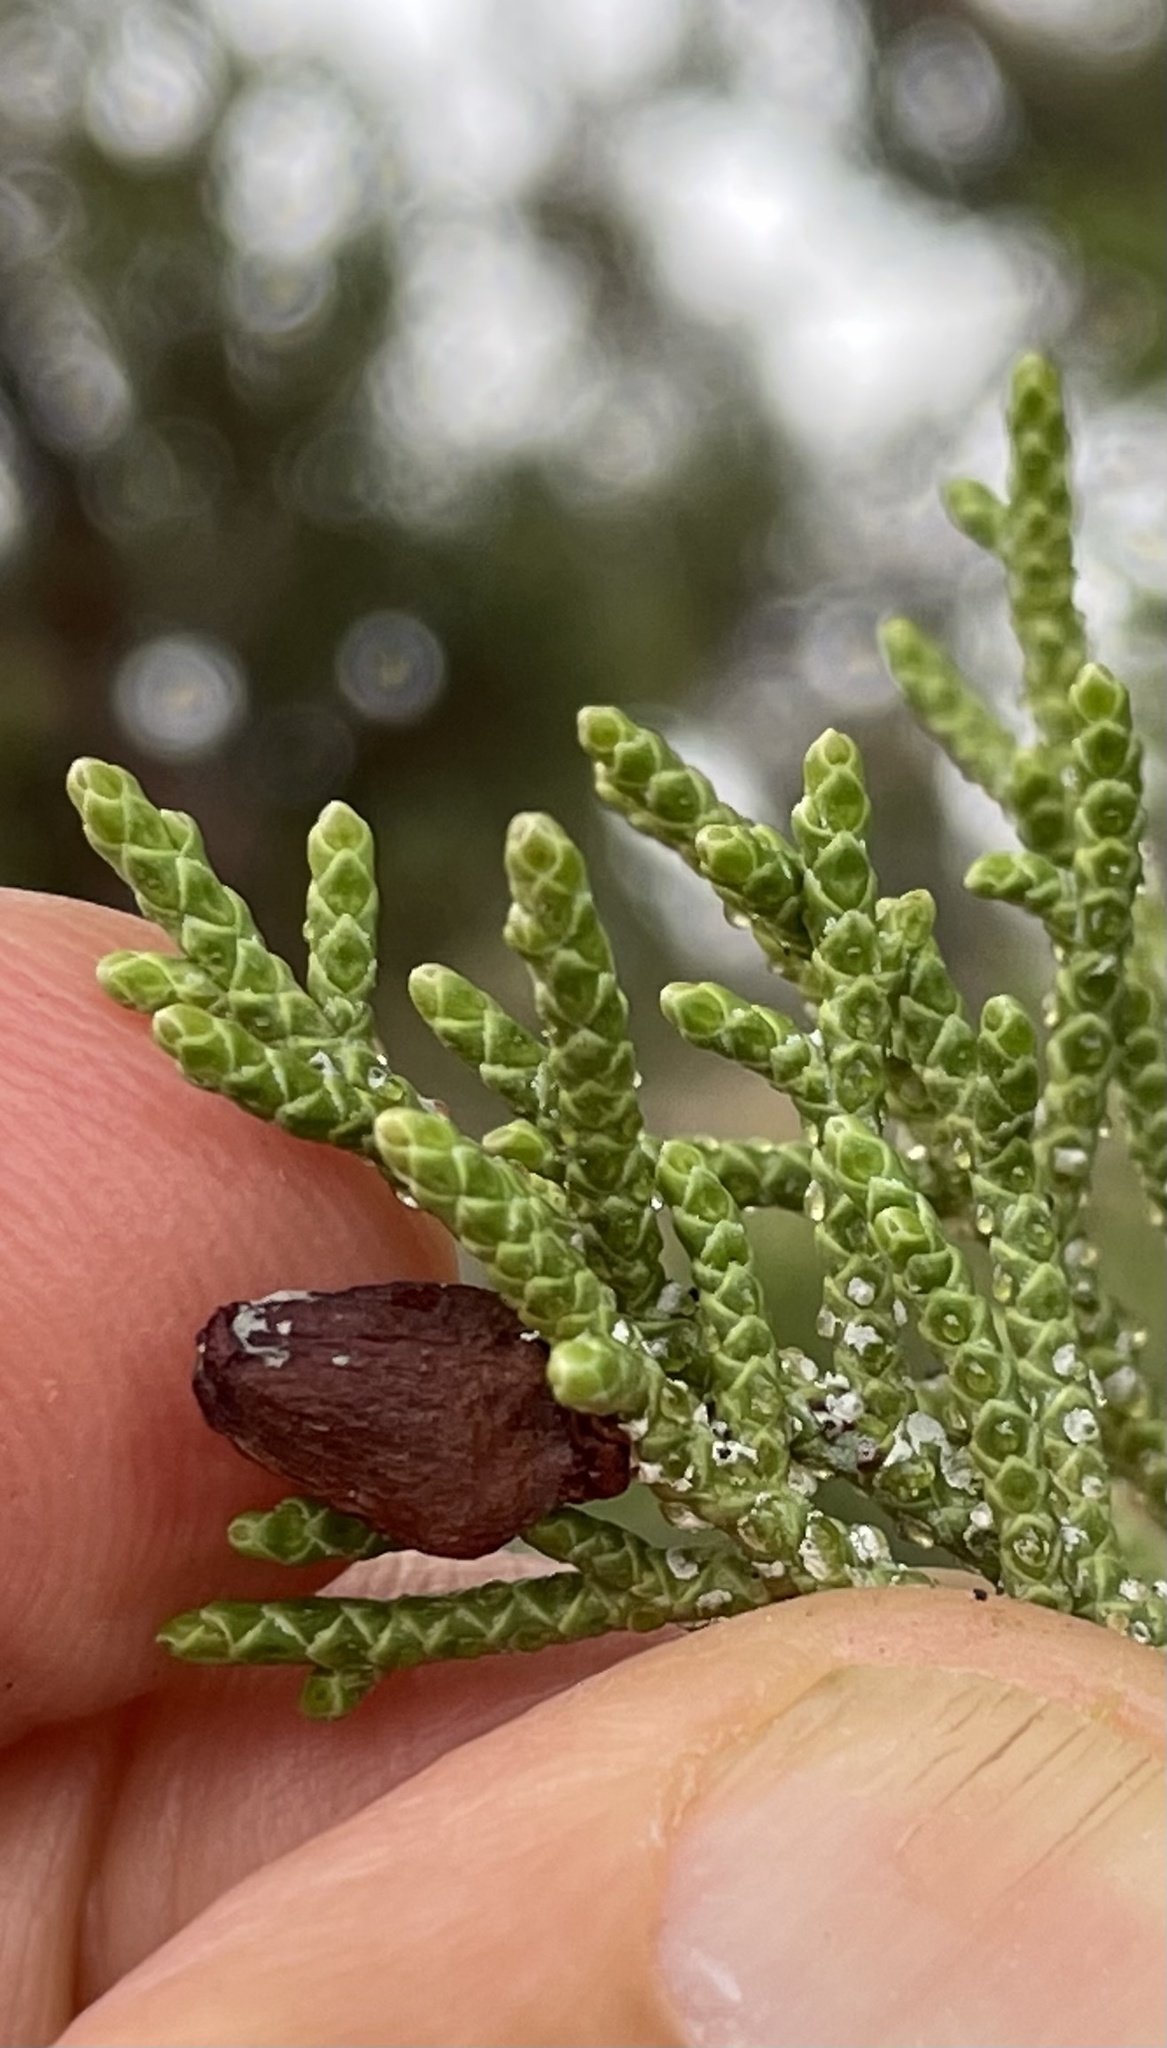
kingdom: Animalia
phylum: Arthropoda
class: Insecta
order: Diptera
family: Cecidomyiidae
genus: Walshomyia
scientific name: Walshomyia juniperina
